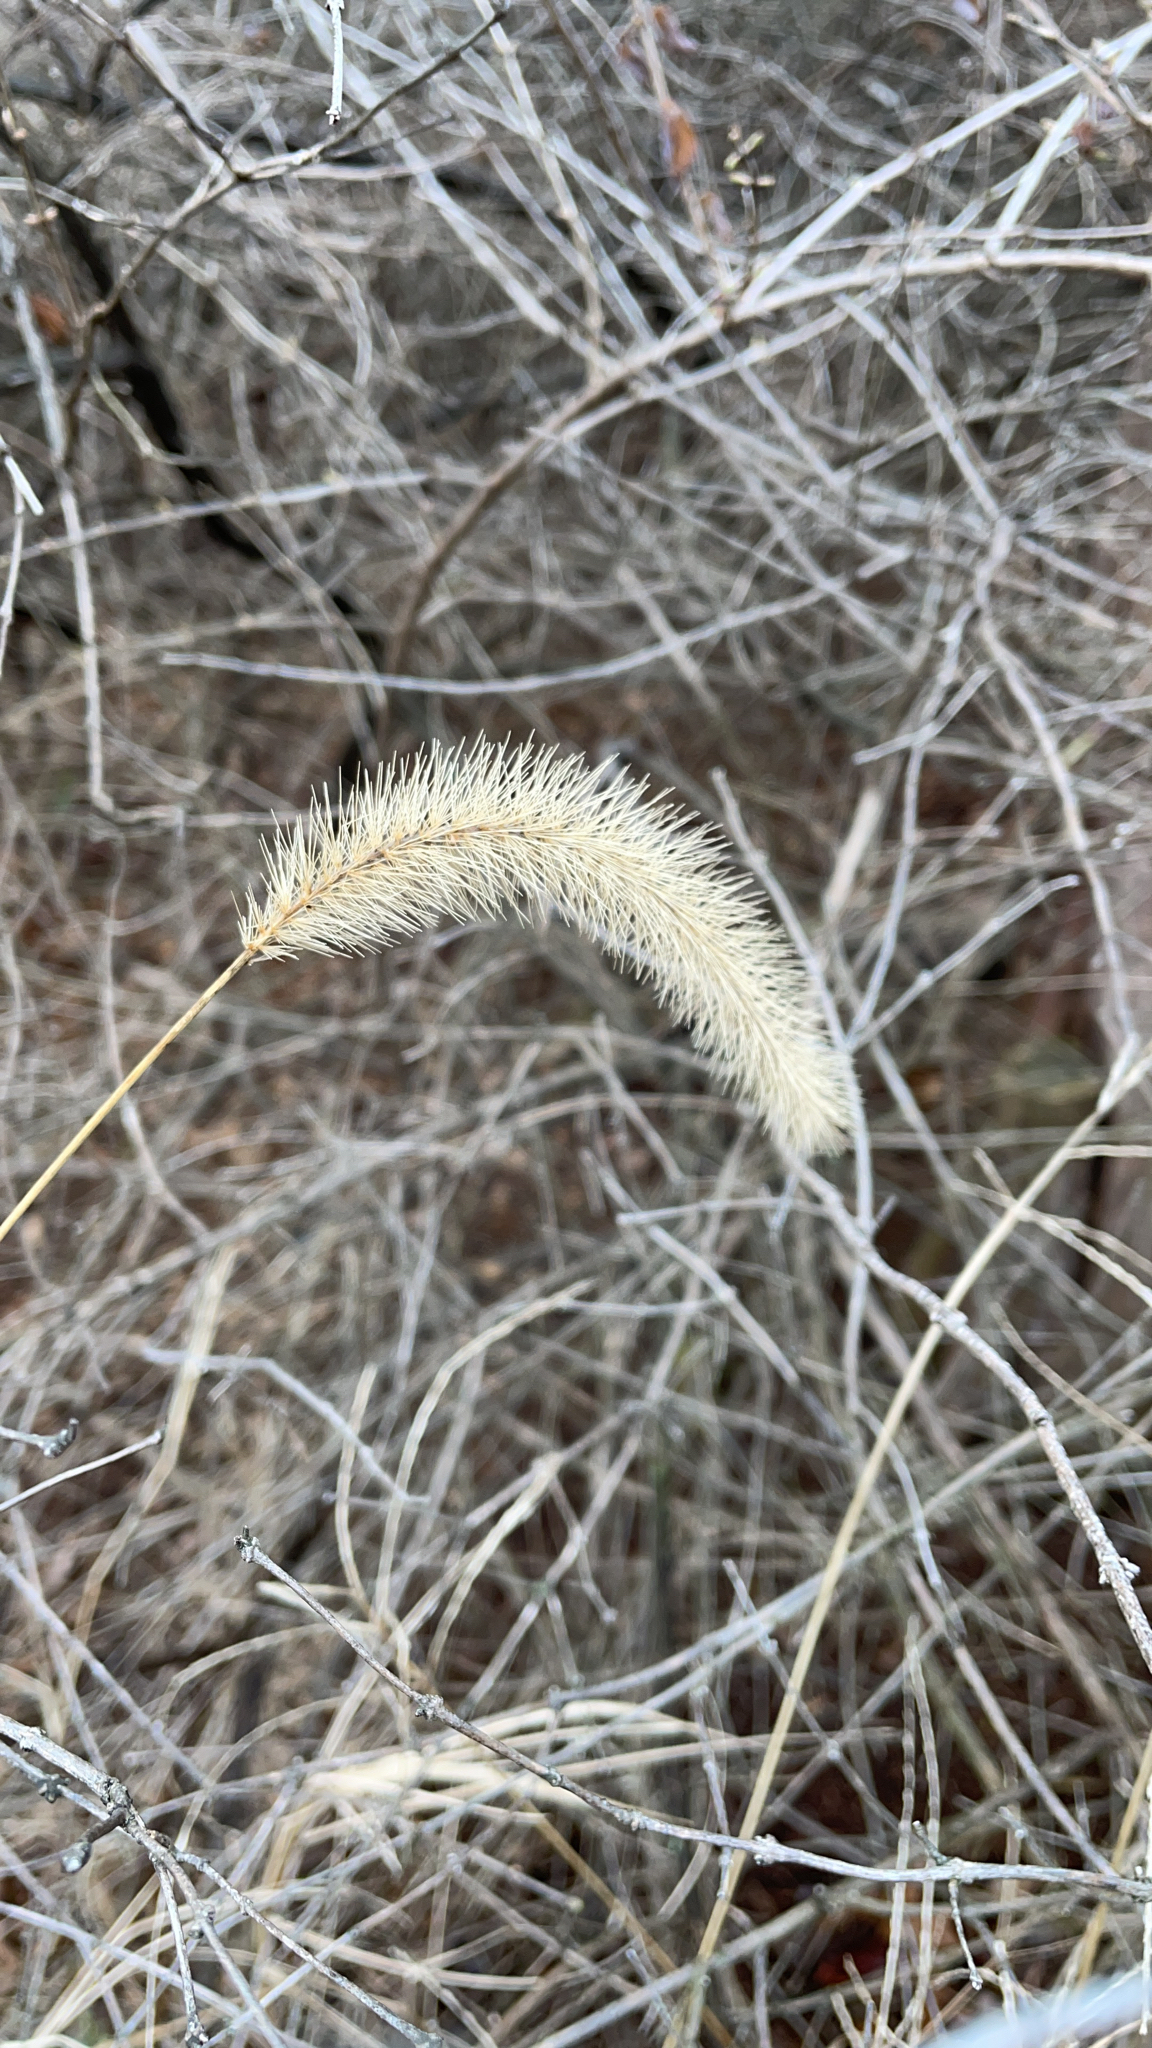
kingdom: Plantae
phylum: Tracheophyta
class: Liliopsida
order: Poales
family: Poaceae
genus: Setaria
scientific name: Setaria faberi
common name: Nodding bristle-grass
